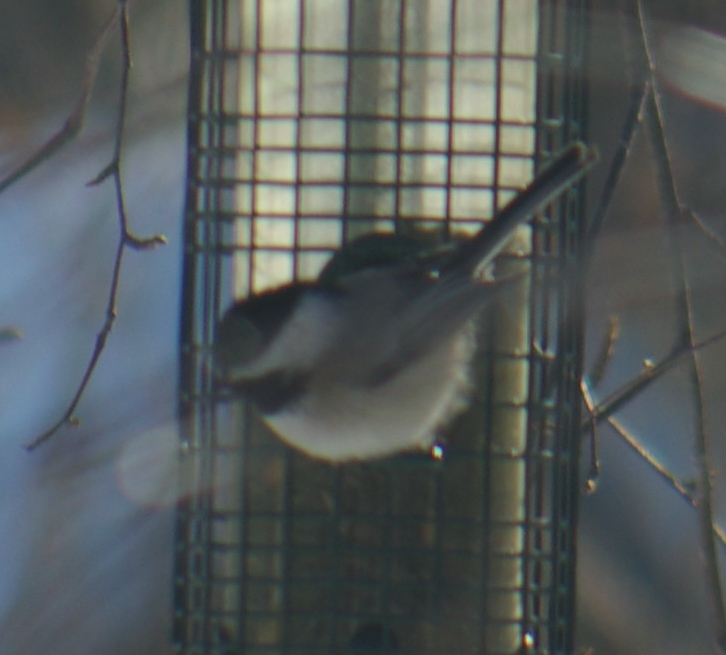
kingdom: Animalia
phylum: Chordata
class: Aves
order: Passeriformes
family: Paridae
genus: Poecile
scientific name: Poecile atricapillus
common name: Black-capped chickadee
